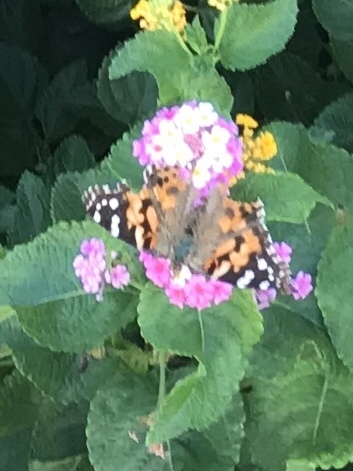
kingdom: Animalia
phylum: Arthropoda
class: Insecta
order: Lepidoptera
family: Nymphalidae
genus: Vanessa
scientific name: Vanessa cardui
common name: Painted lady
